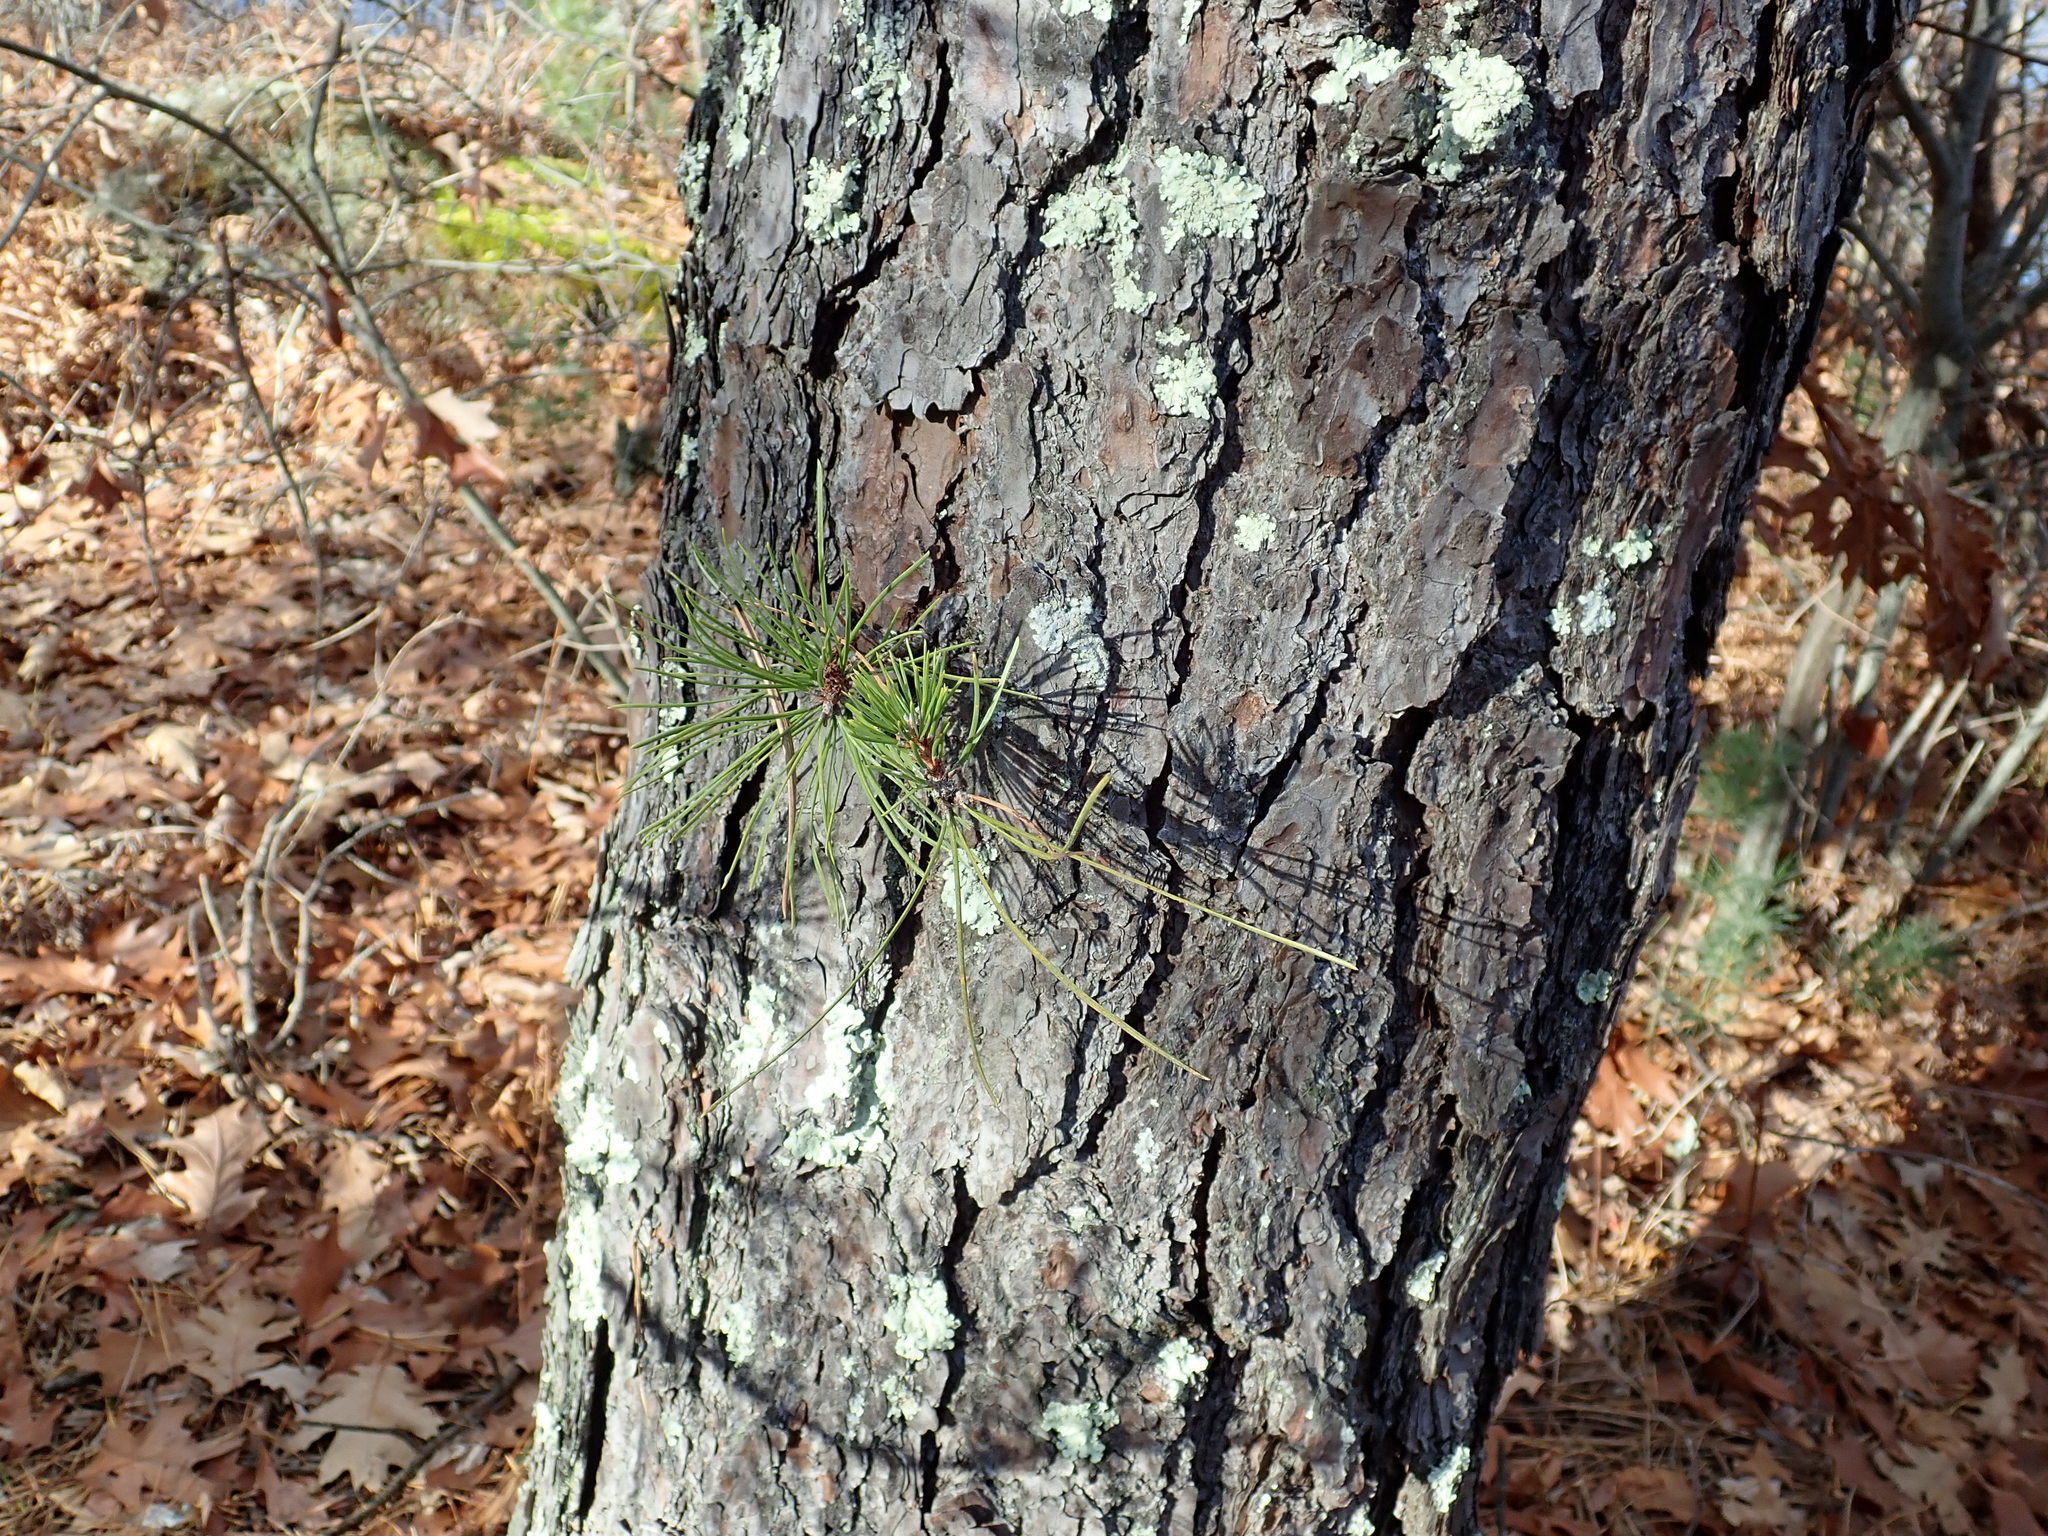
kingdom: Plantae
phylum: Tracheophyta
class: Pinopsida
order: Pinales
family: Pinaceae
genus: Pinus
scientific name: Pinus rigida
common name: Pitch pine
